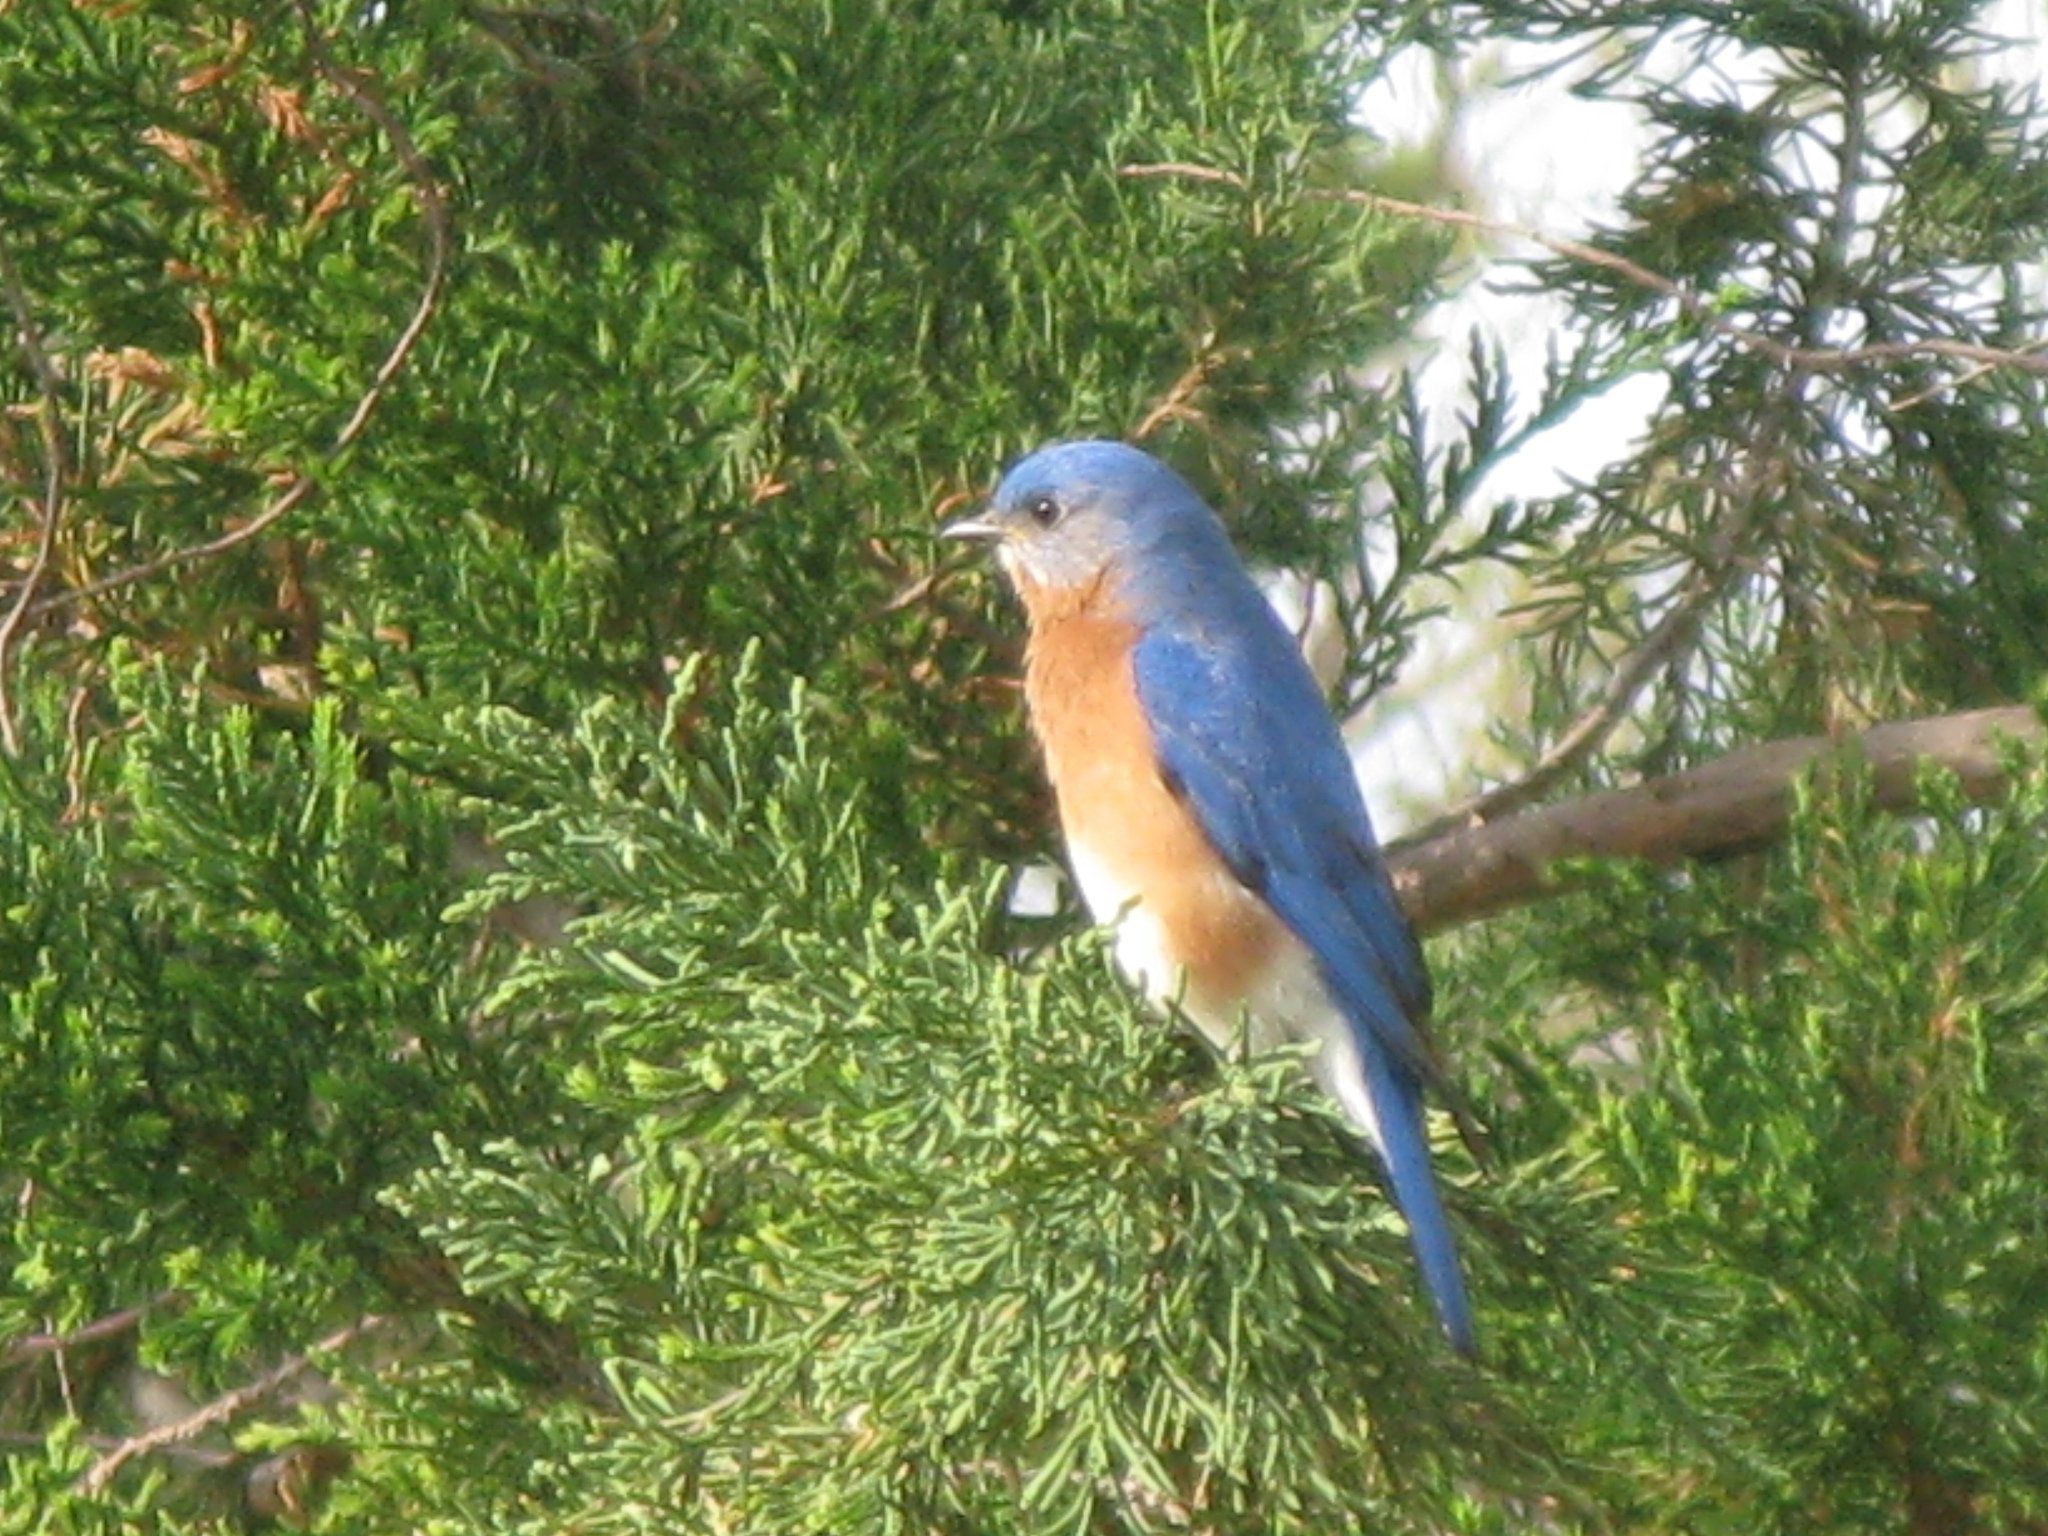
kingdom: Animalia
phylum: Chordata
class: Aves
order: Passeriformes
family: Turdidae
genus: Sialia
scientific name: Sialia sialis
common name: Eastern bluebird
